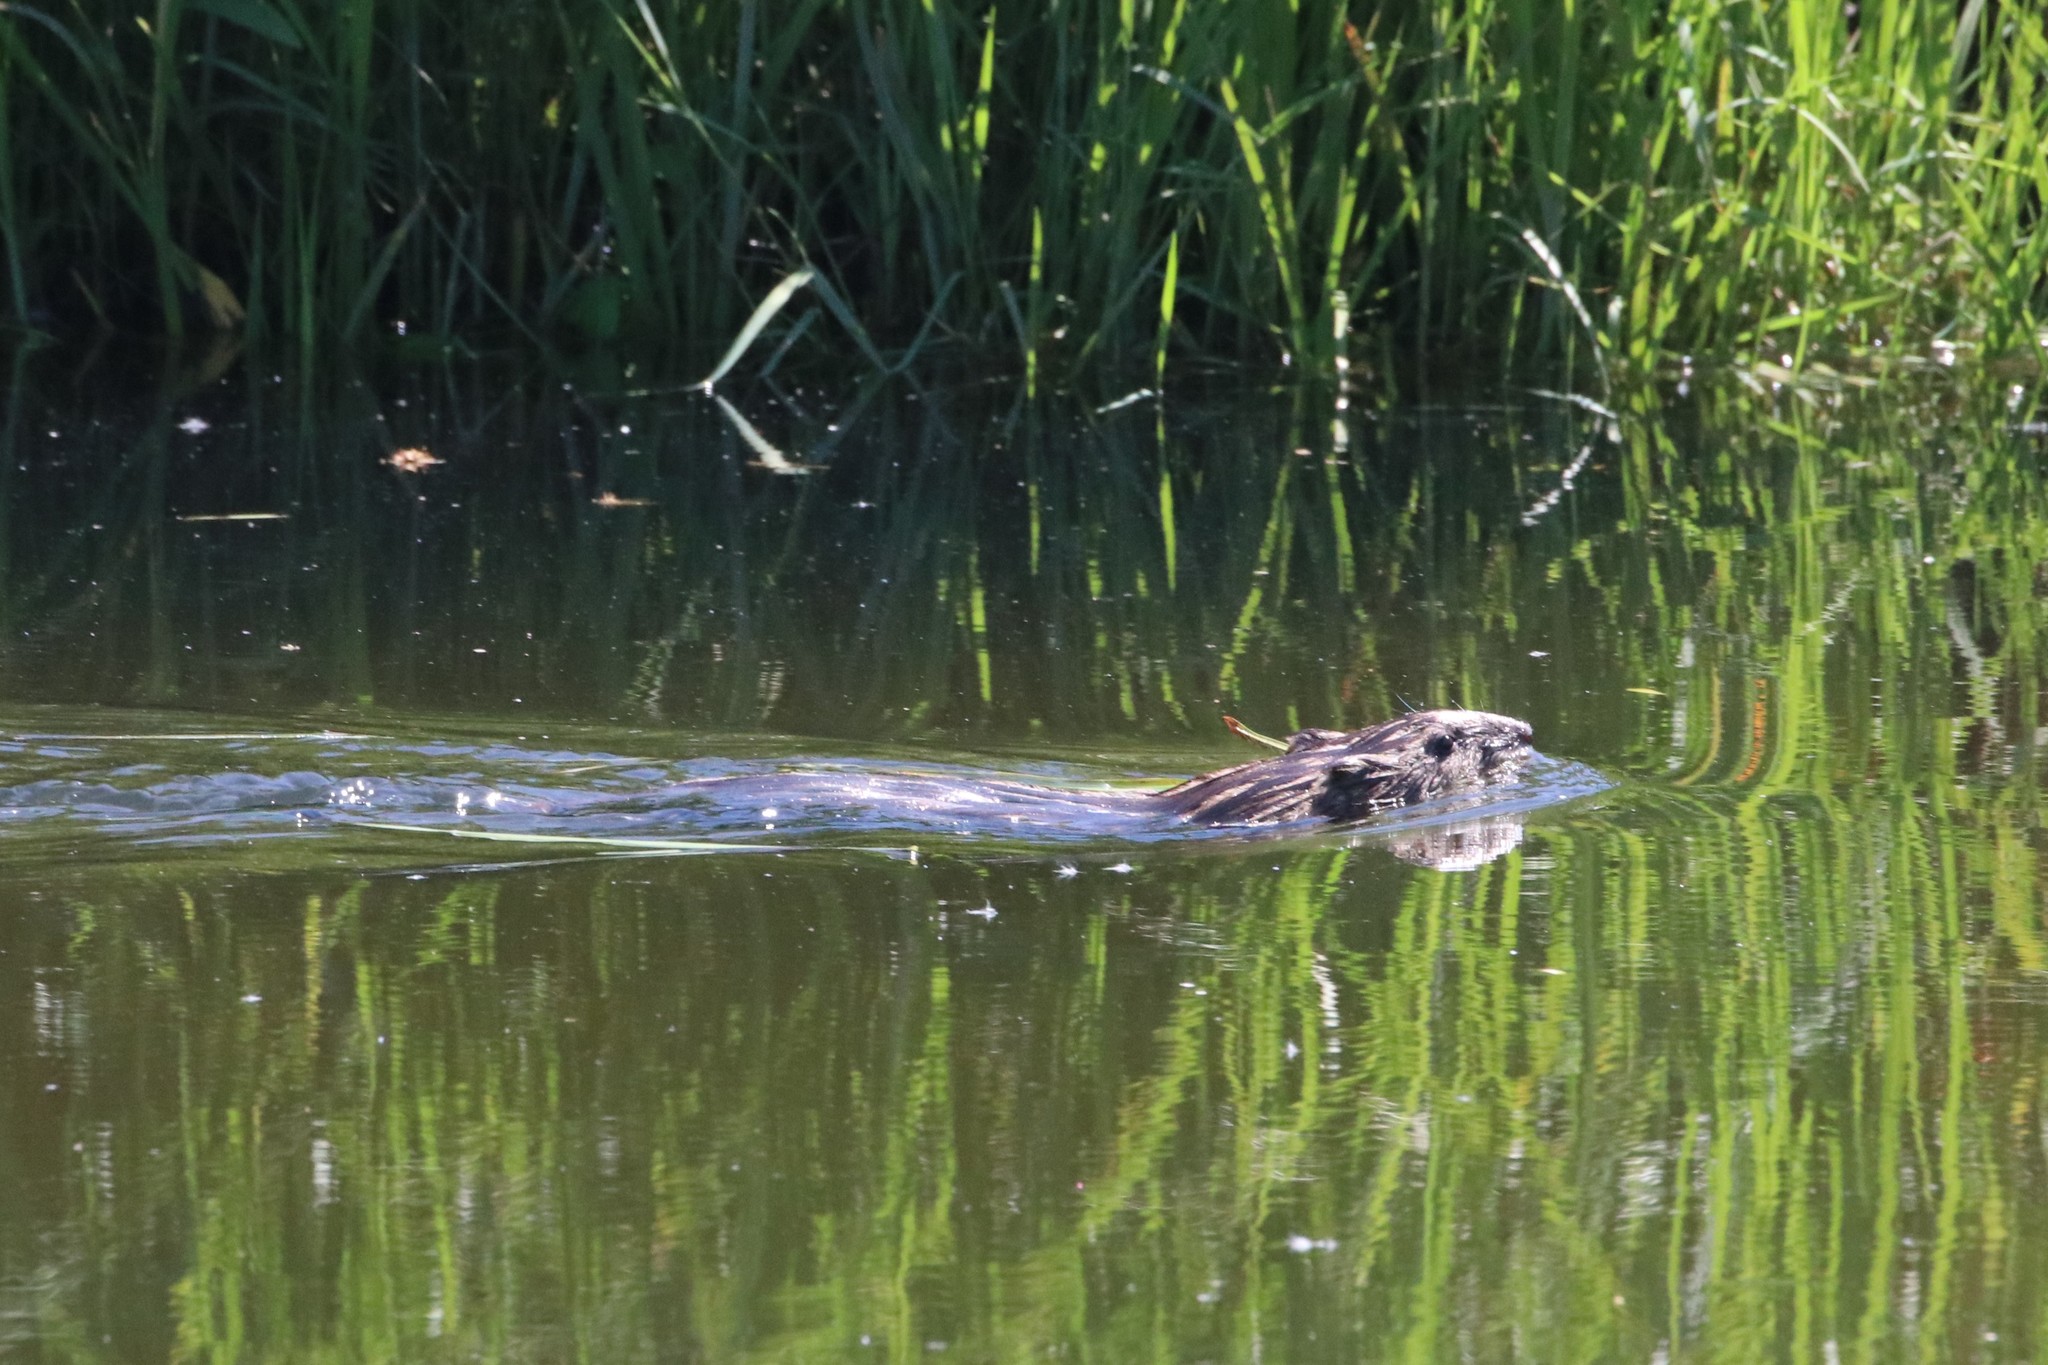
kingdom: Animalia
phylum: Chordata
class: Mammalia
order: Rodentia
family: Cricetidae
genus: Ondatra
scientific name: Ondatra zibethicus
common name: Muskrat
